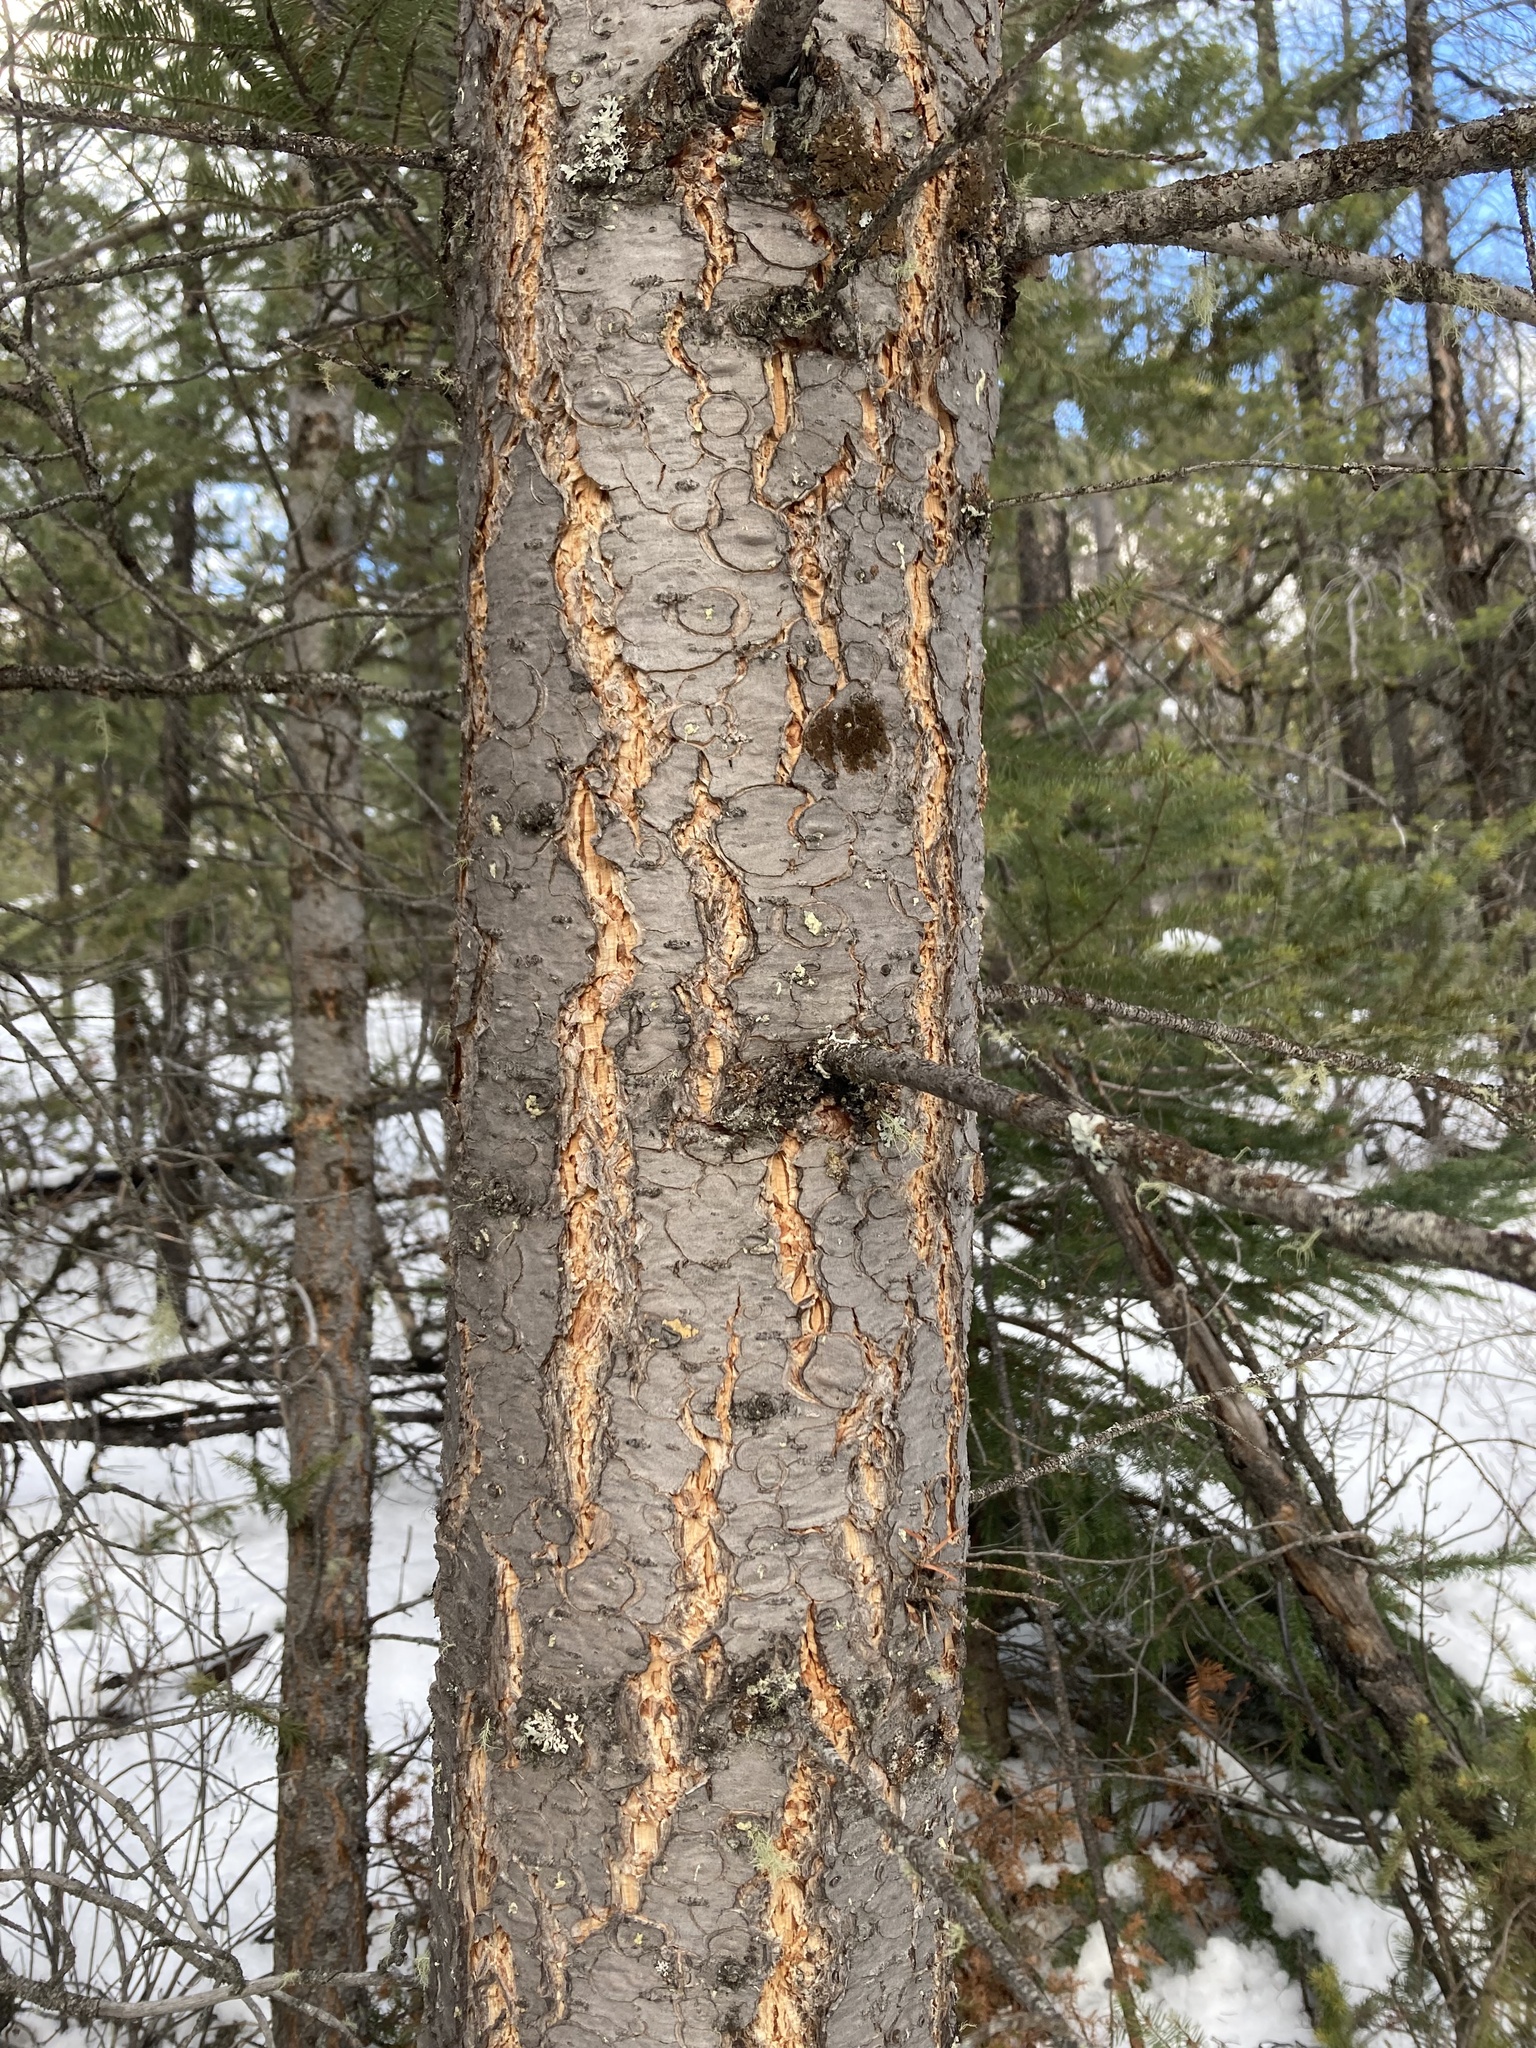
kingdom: Plantae
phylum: Tracheophyta
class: Pinopsida
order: Pinales
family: Pinaceae
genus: Pseudotsuga
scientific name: Pseudotsuga menziesii
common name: Douglas fir
